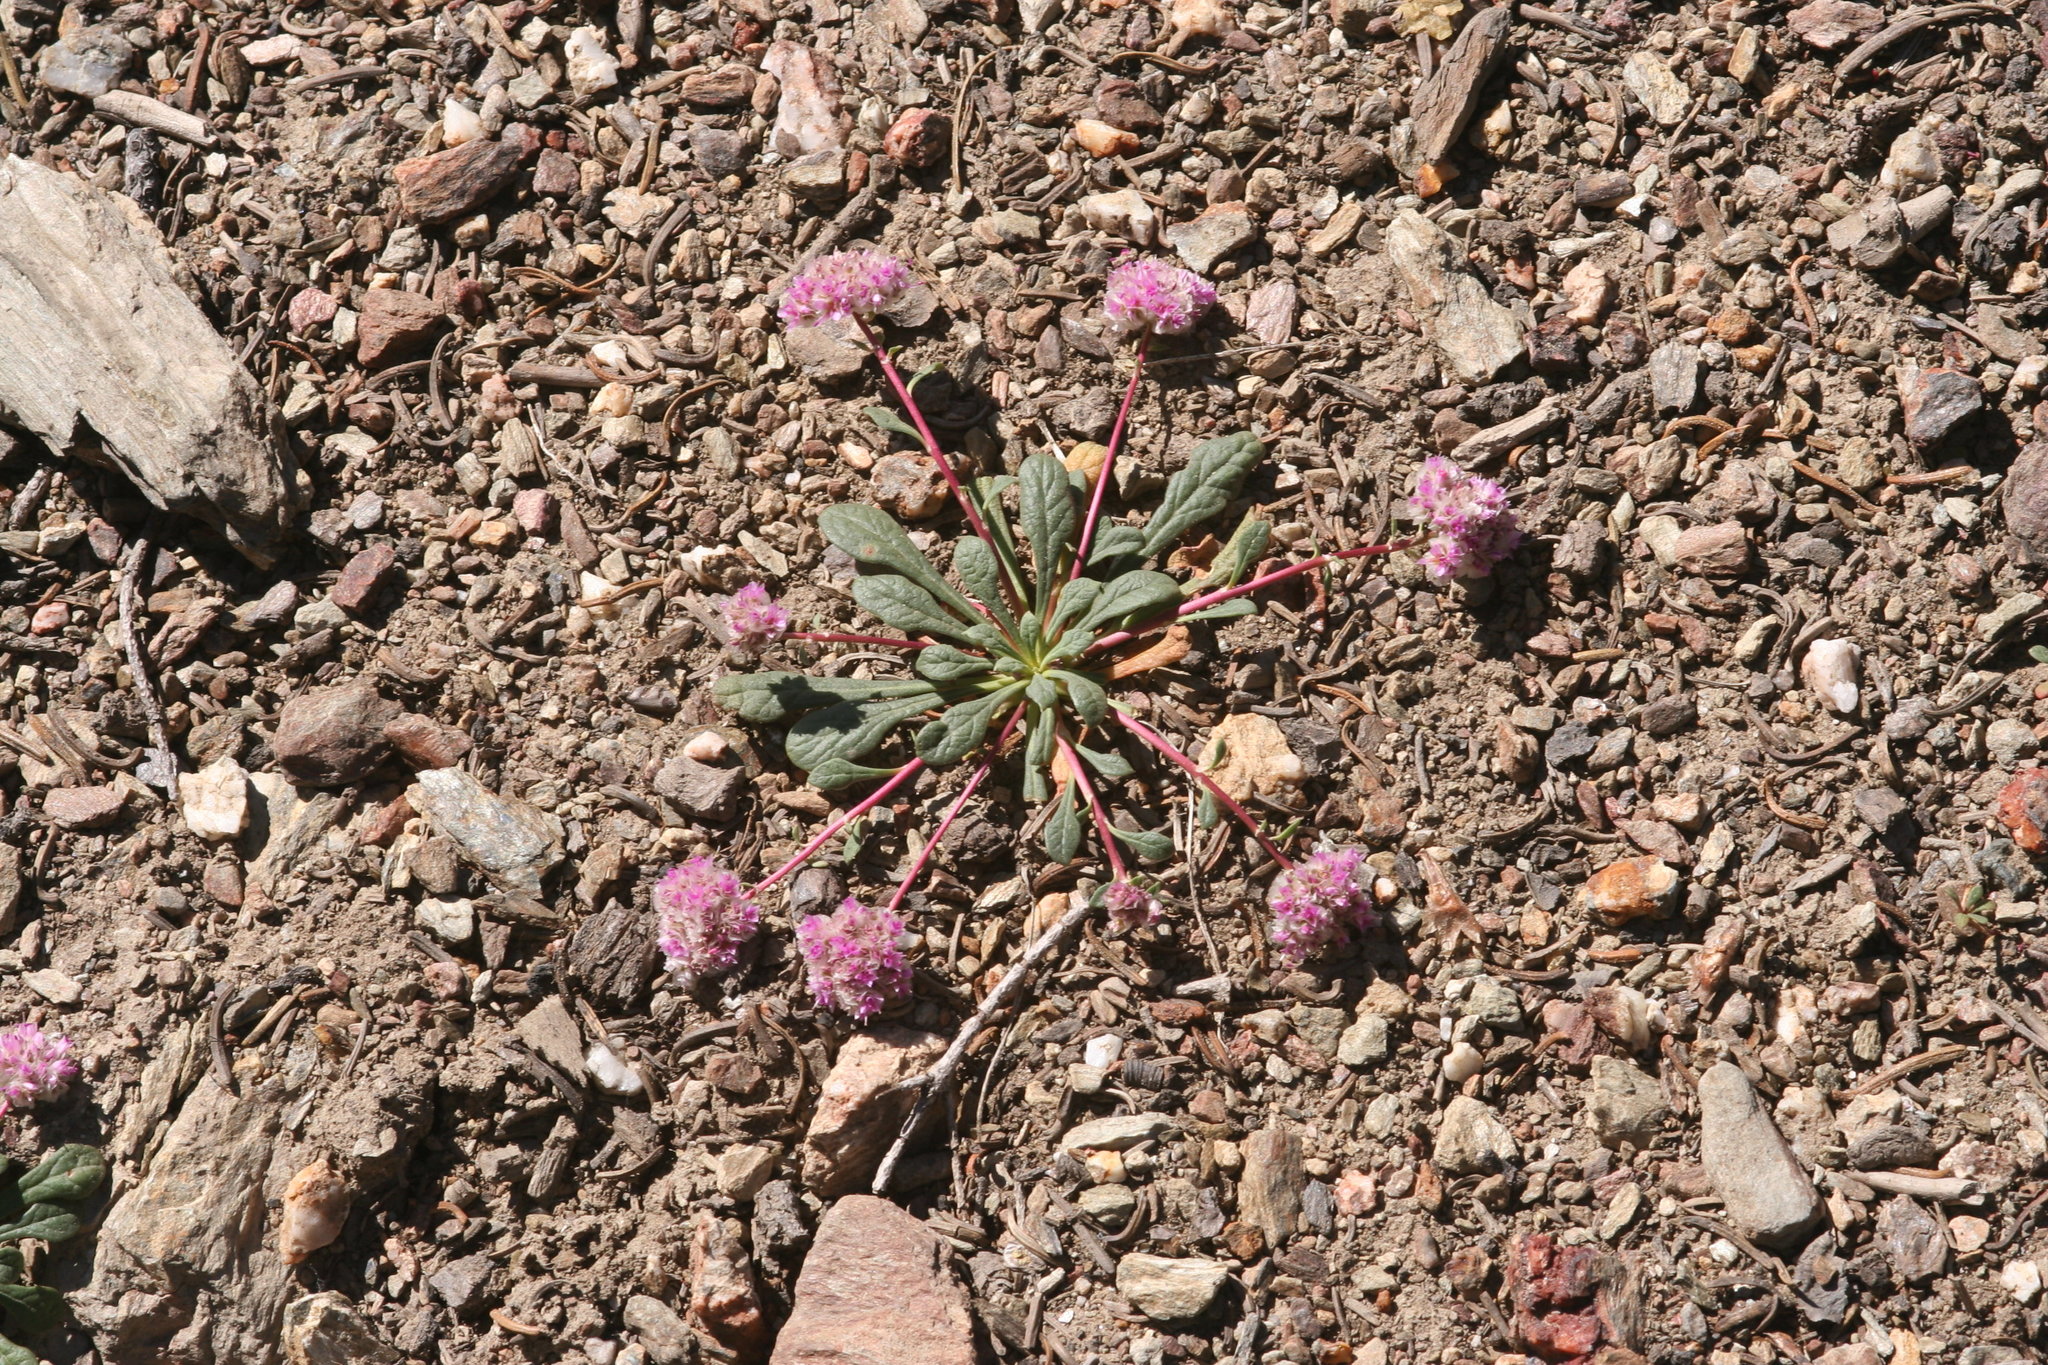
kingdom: Plantae
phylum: Tracheophyta
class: Magnoliopsida
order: Caryophyllales
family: Montiaceae
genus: Calyptridium
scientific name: Calyptridium monospermum
